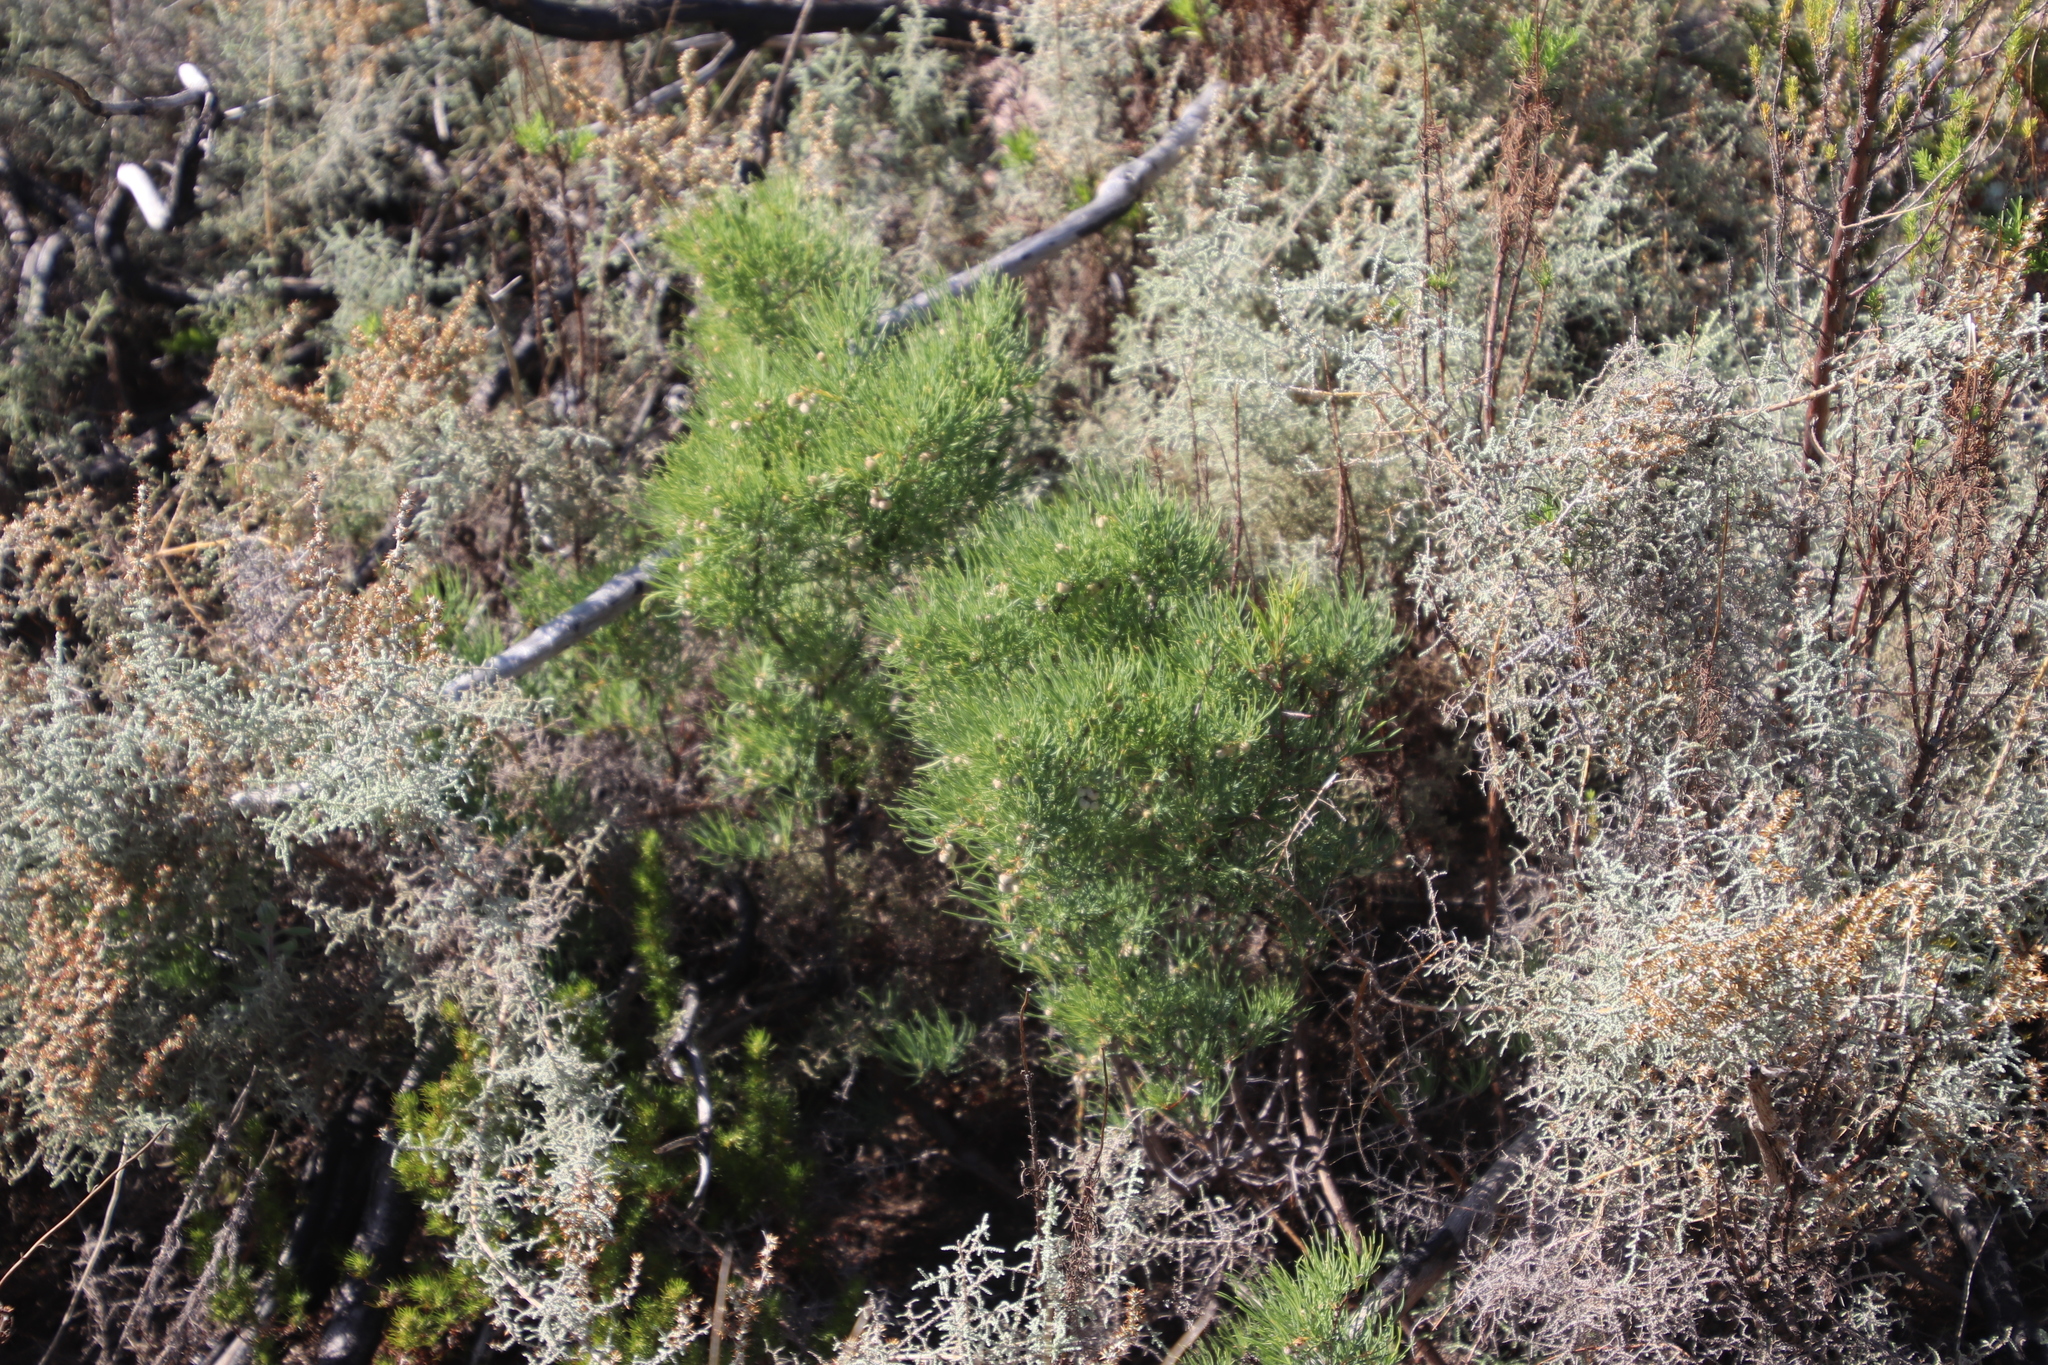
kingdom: Plantae
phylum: Tracheophyta
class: Magnoliopsida
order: Sapindales
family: Anacardiaceae
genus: Searsia
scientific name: Searsia rosmarinifolia
